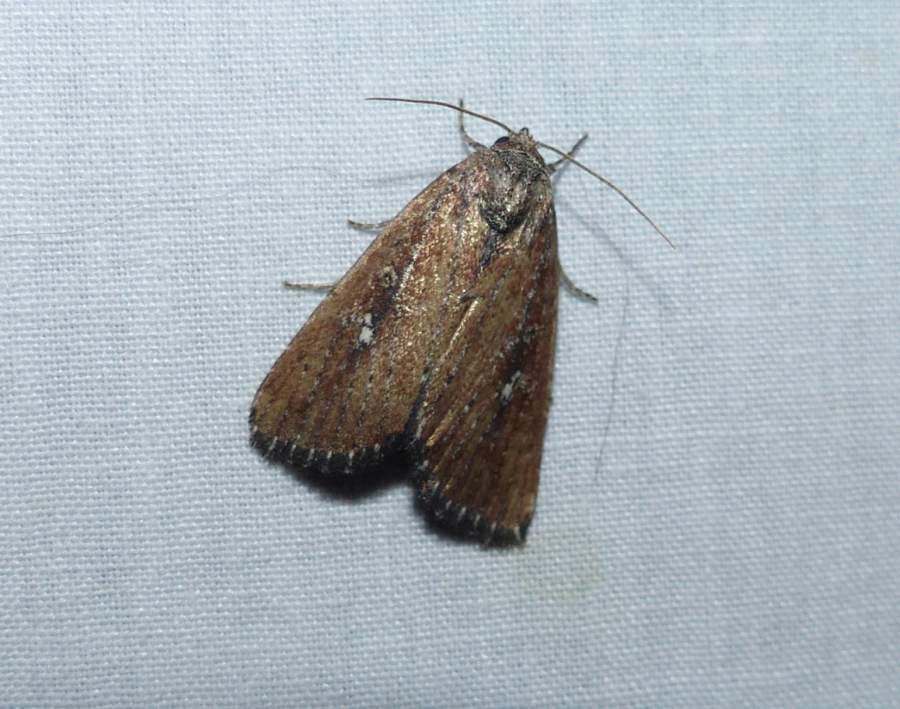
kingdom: Animalia
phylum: Arthropoda
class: Insecta
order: Lepidoptera
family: Noctuidae
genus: Condica
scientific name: Condica videns
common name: White-dotted groundling
